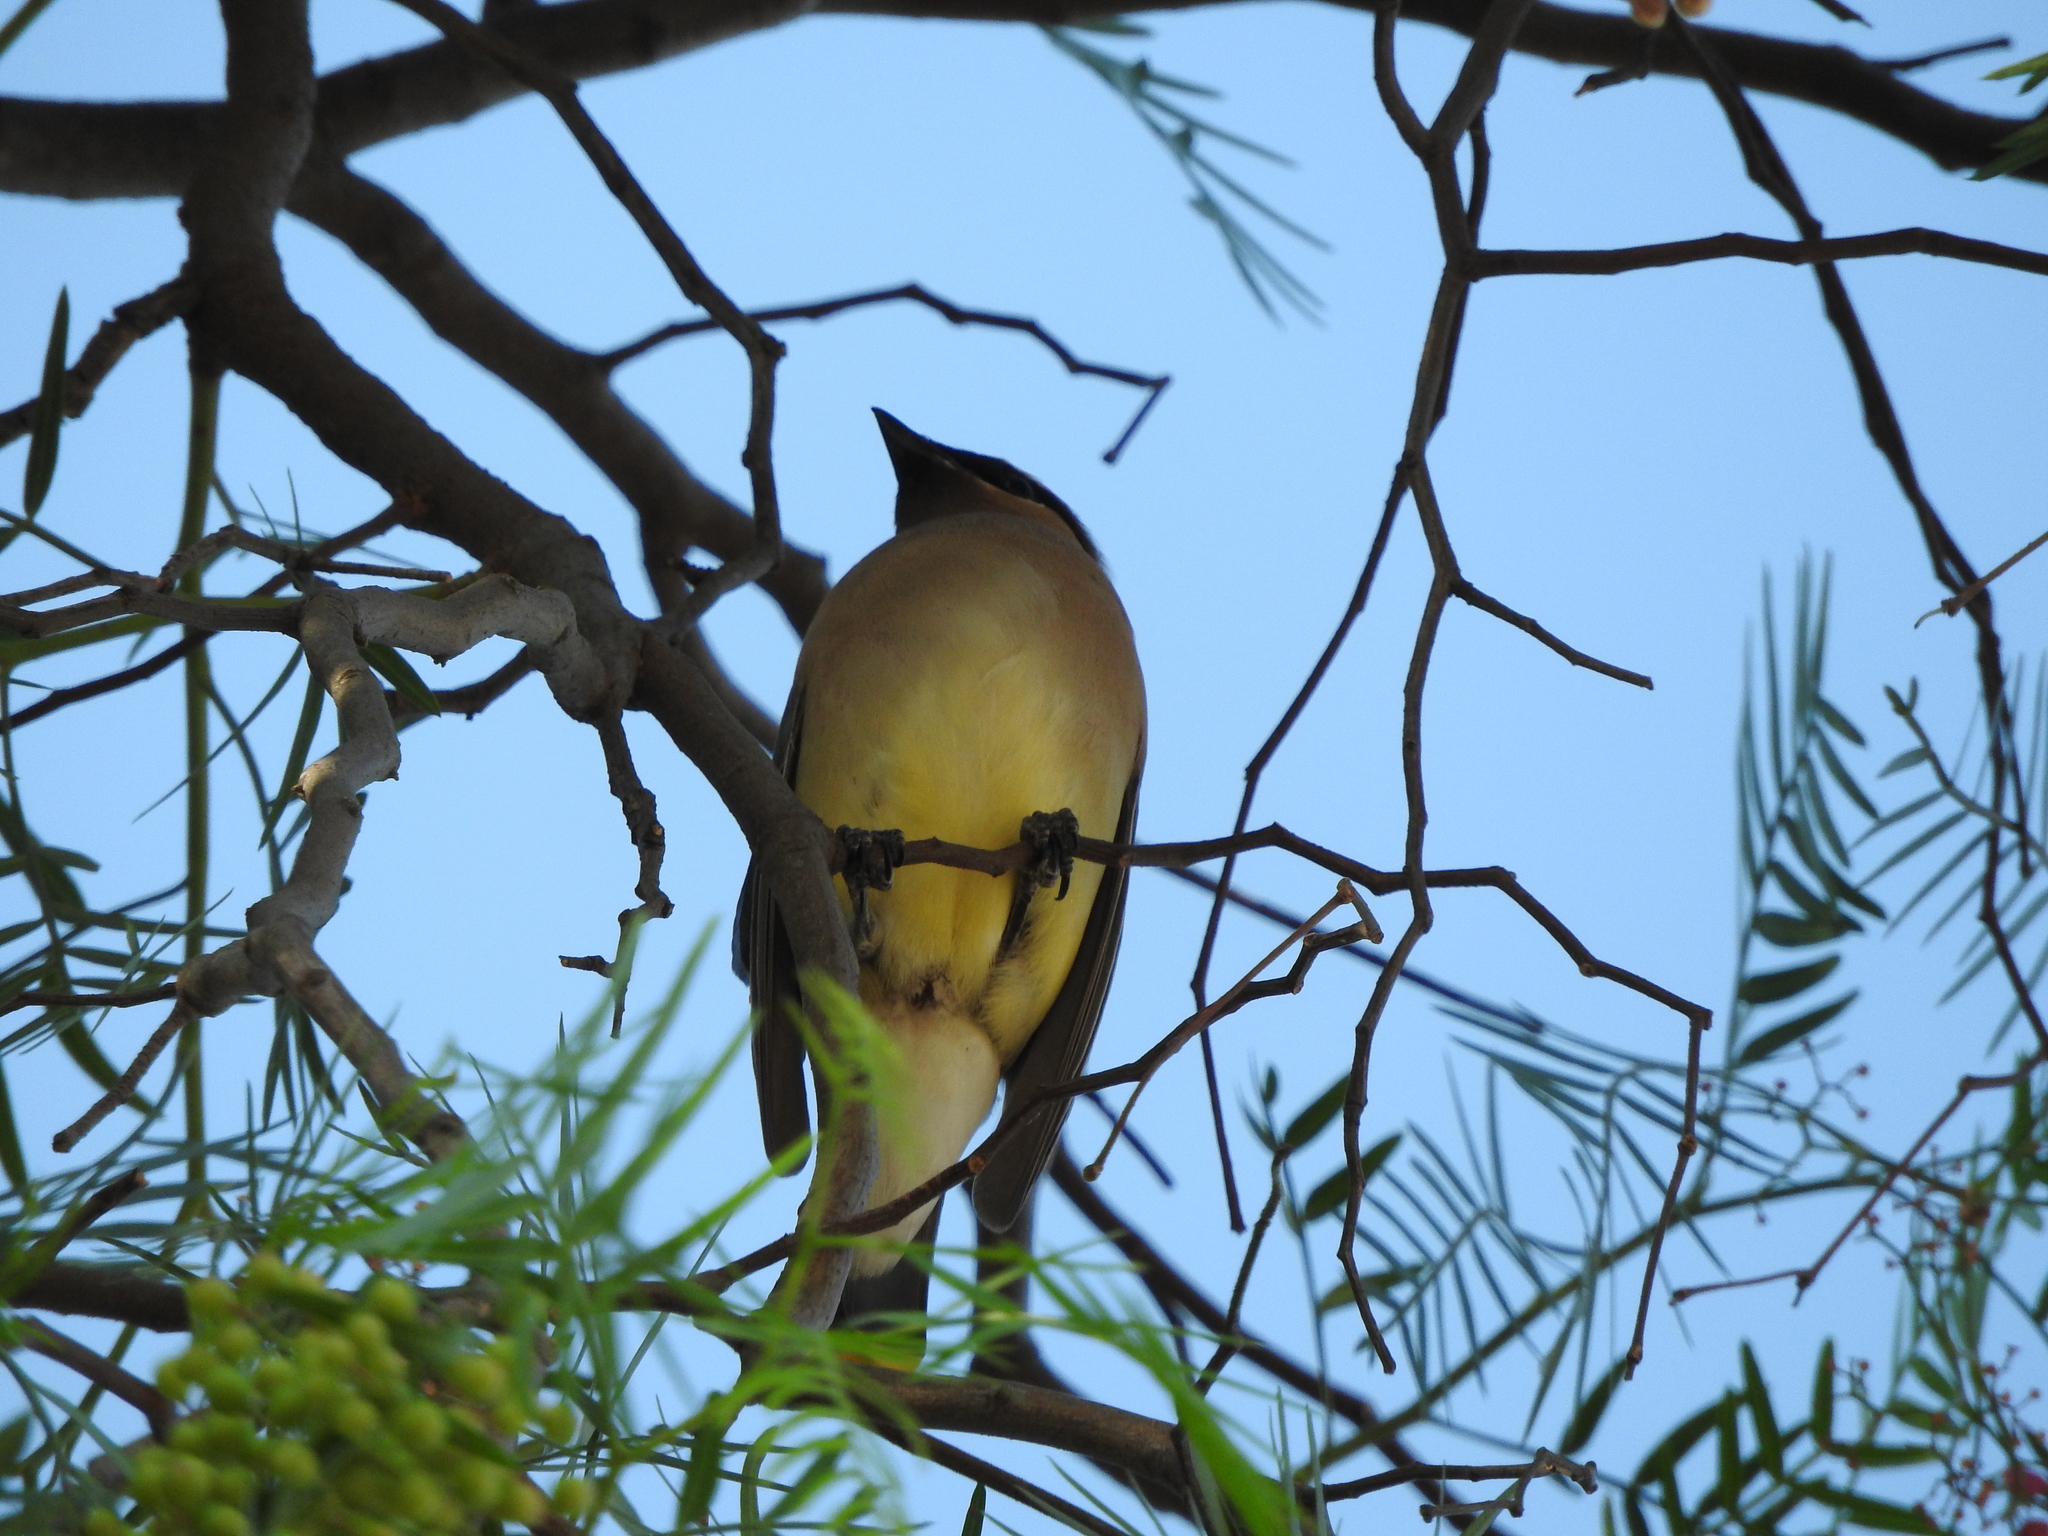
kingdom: Animalia
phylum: Chordata
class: Aves
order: Passeriformes
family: Bombycillidae
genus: Bombycilla
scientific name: Bombycilla cedrorum
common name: Cedar waxwing
